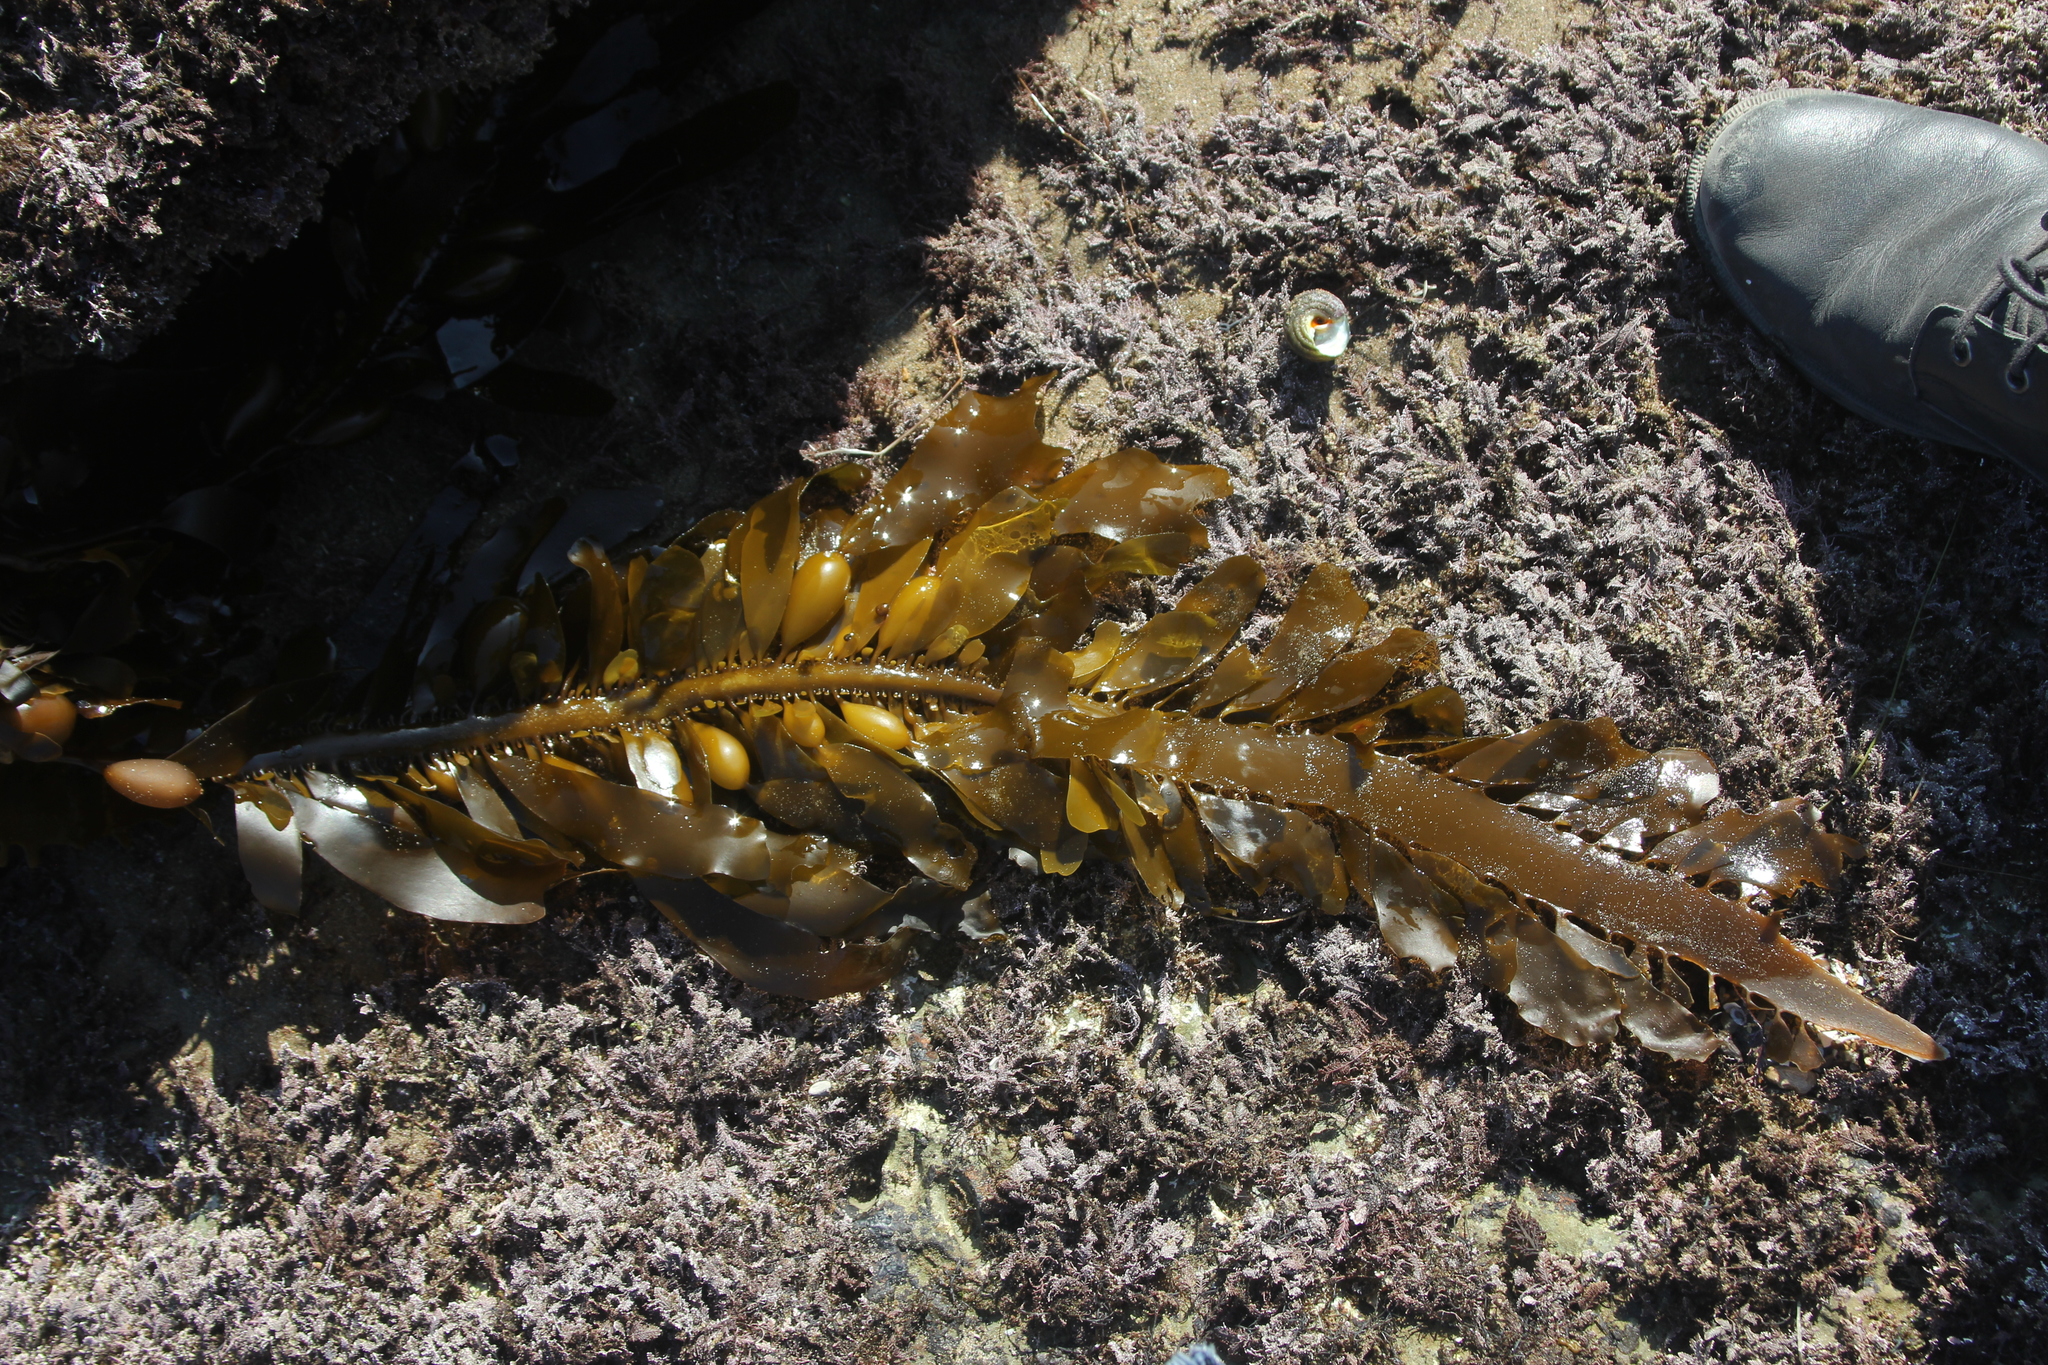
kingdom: Chromista
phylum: Ochrophyta
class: Phaeophyceae
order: Laminariales
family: Lessoniaceae
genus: Egregia
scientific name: Egregia menziesii
